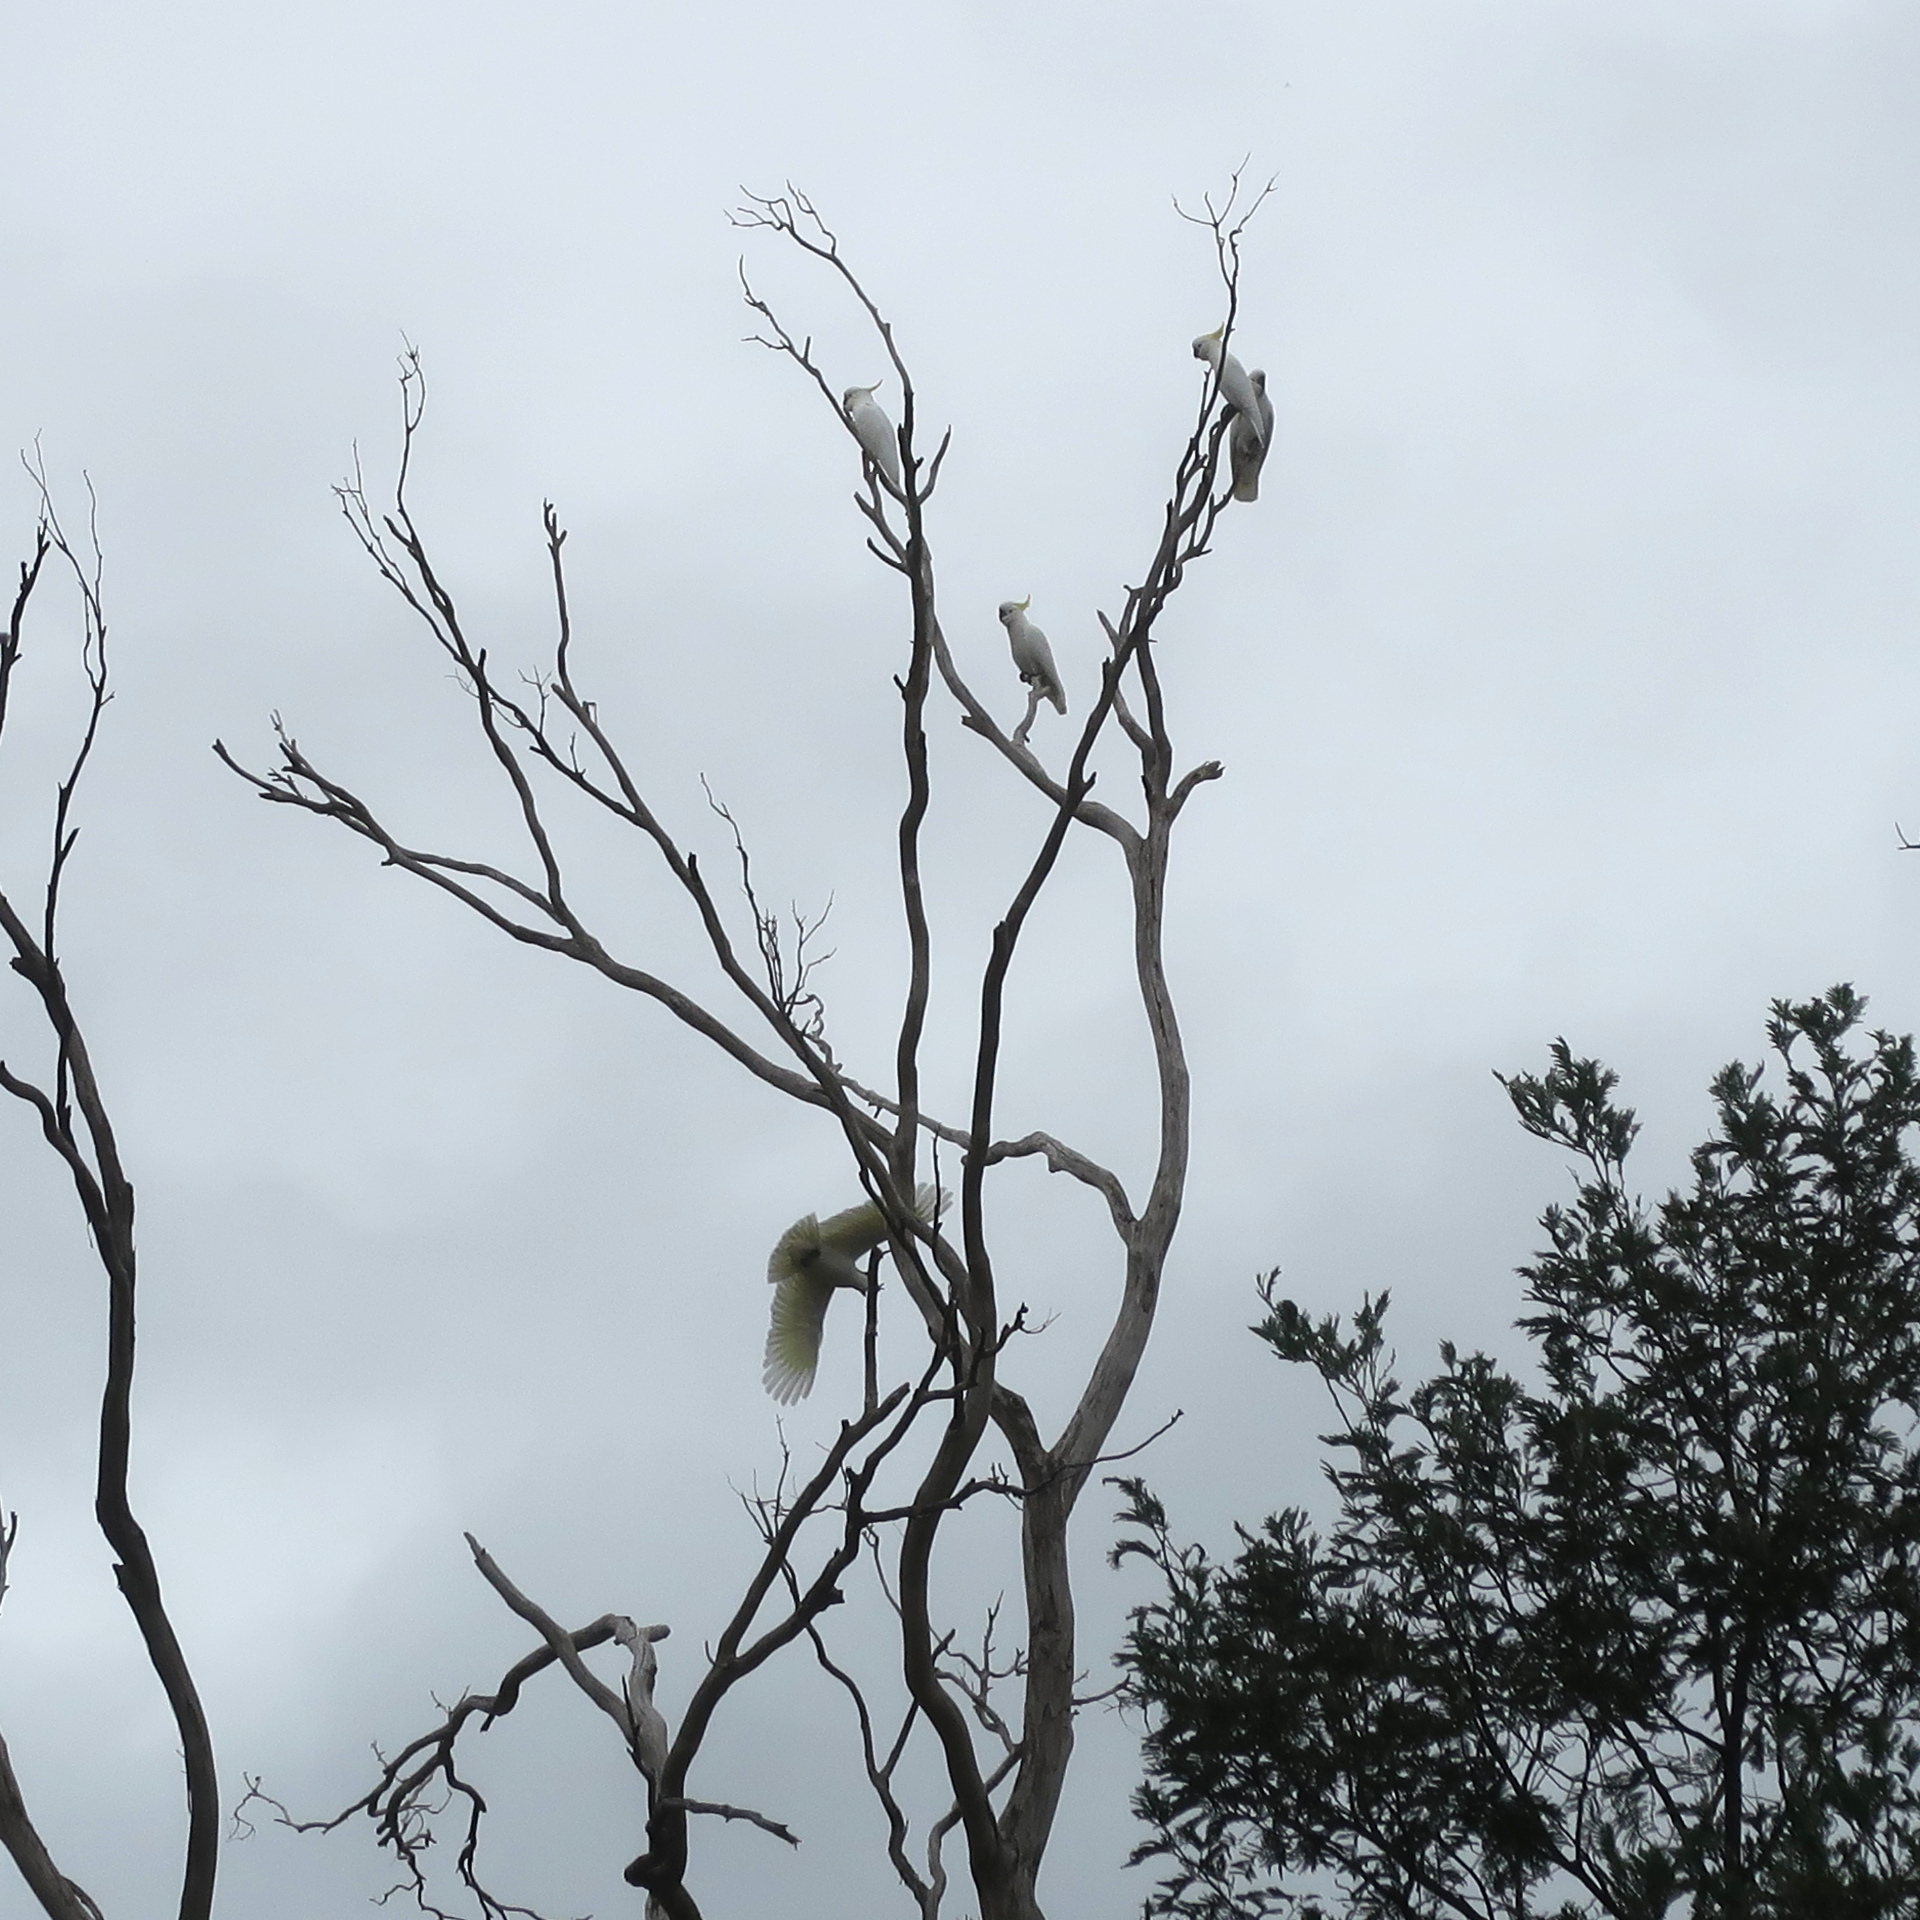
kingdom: Animalia
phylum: Chordata
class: Aves
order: Psittaciformes
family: Psittacidae
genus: Cacatua
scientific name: Cacatua galerita
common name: Sulphur-crested cockatoo
